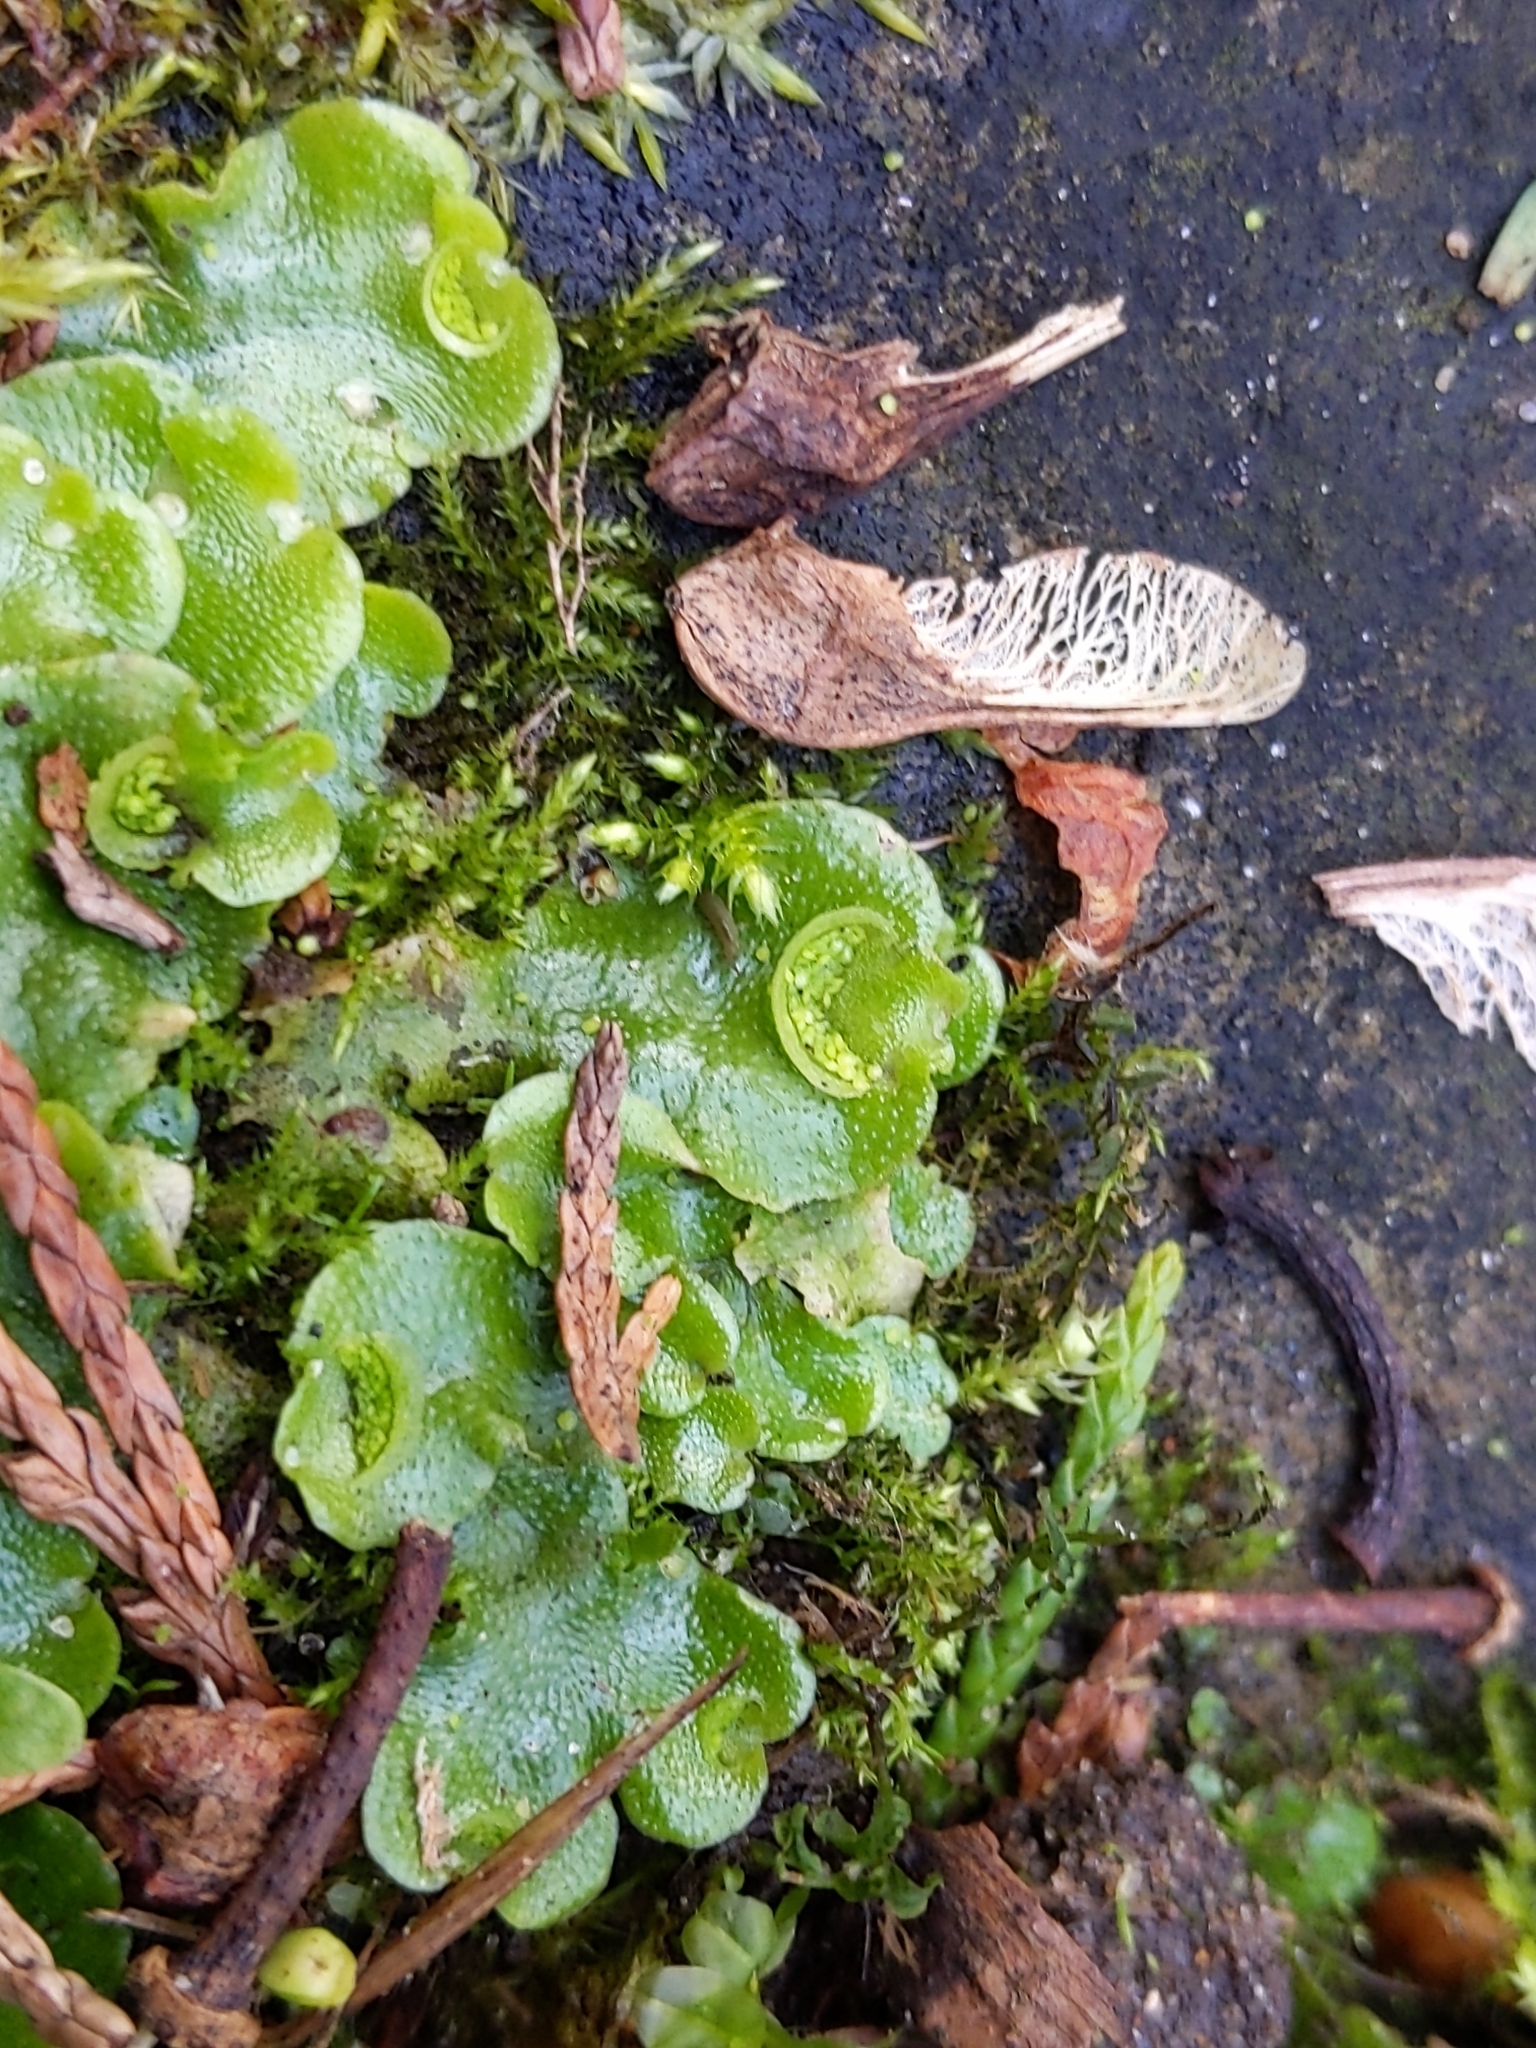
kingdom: Plantae
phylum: Marchantiophyta
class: Marchantiopsida
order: Lunulariales
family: Lunulariaceae
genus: Lunularia
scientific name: Lunularia cruciata
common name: Crescent-cup liverwort
